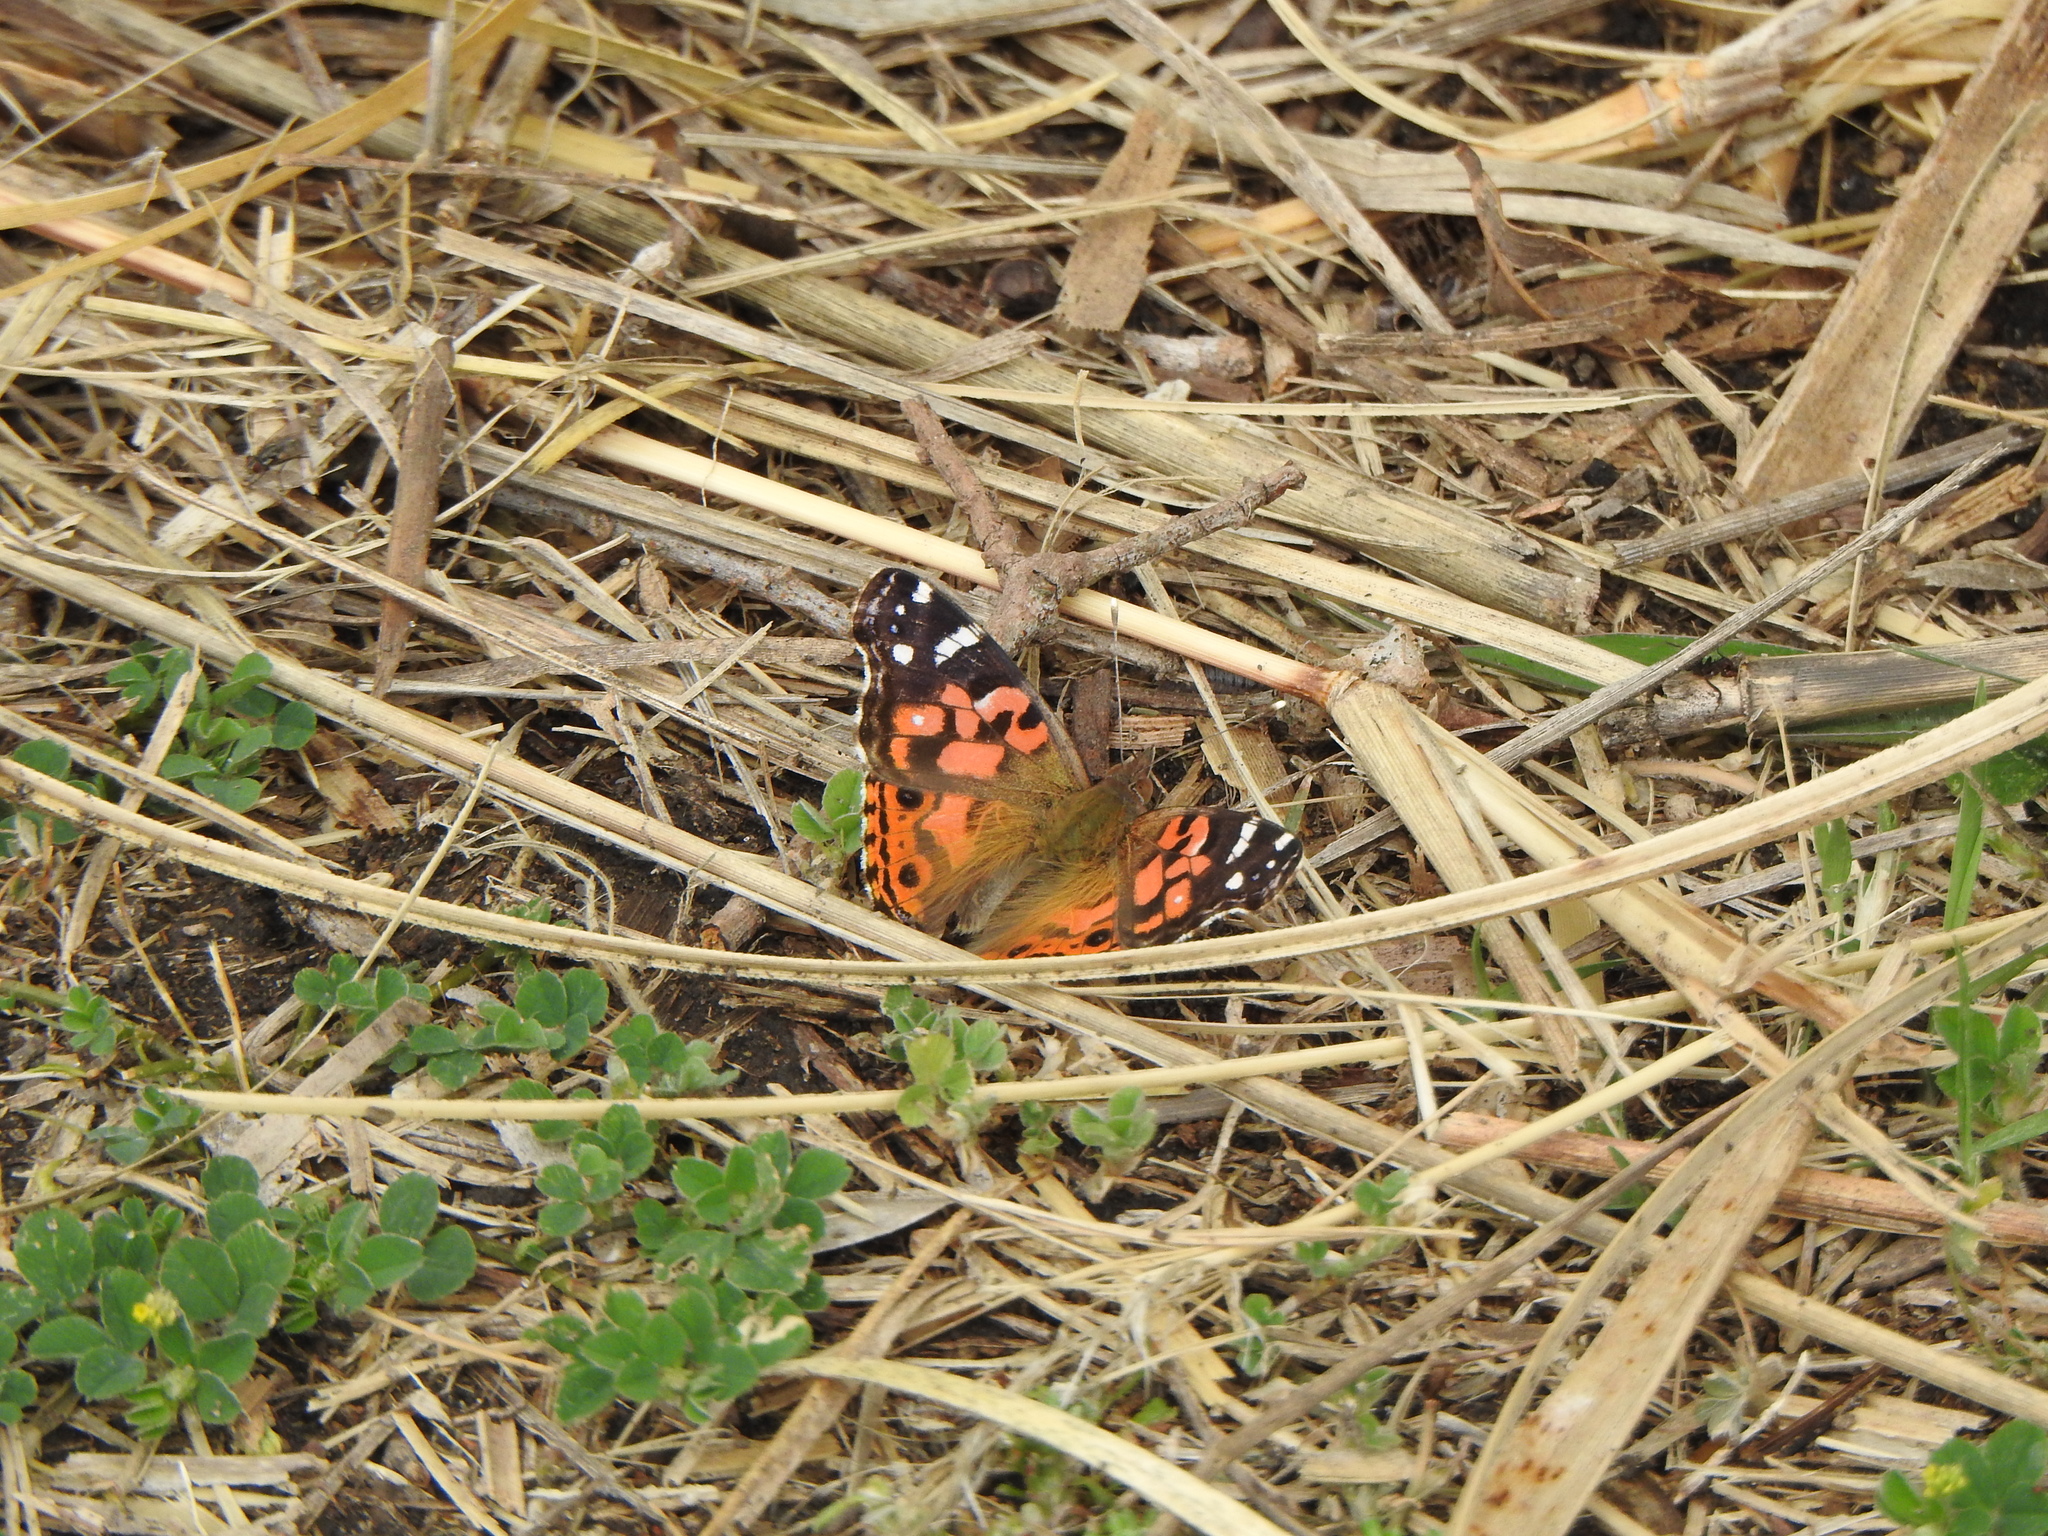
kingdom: Animalia
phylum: Arthropoda
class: Insecta
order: Lepidoptera
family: Nymphalidae
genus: Vanessa
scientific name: Vanessa braziliensis
